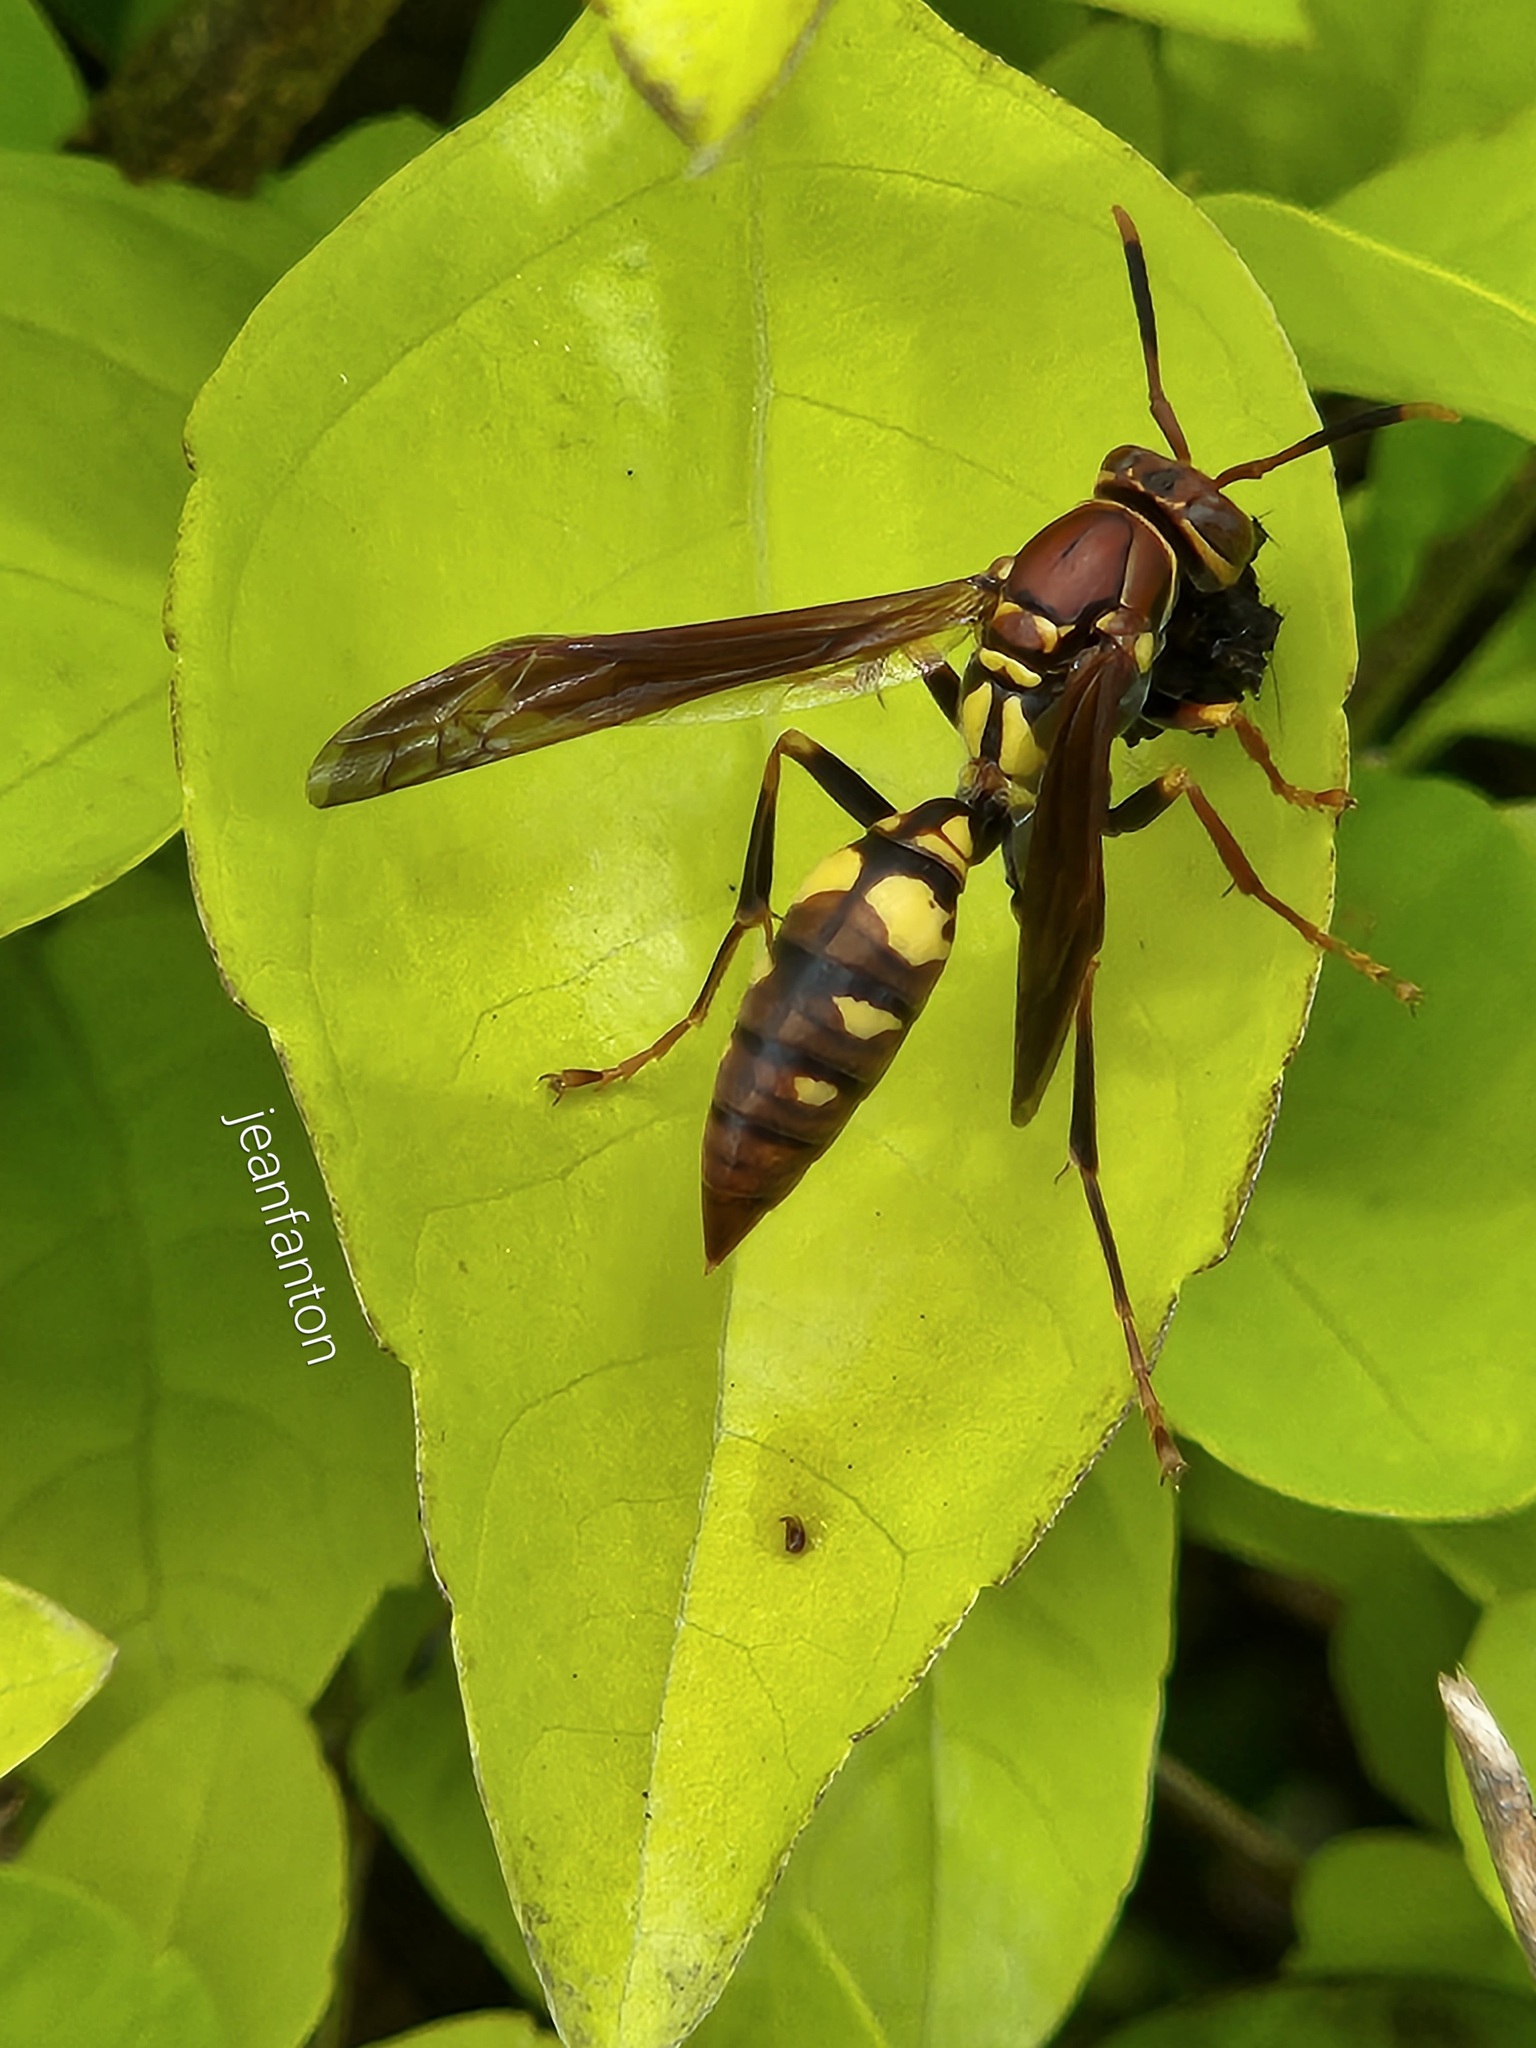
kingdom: Animalia
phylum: Arthropoda
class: Insecta
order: Hymenoptera
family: Eumenidae
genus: Polistes
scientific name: Polistes versicolor
